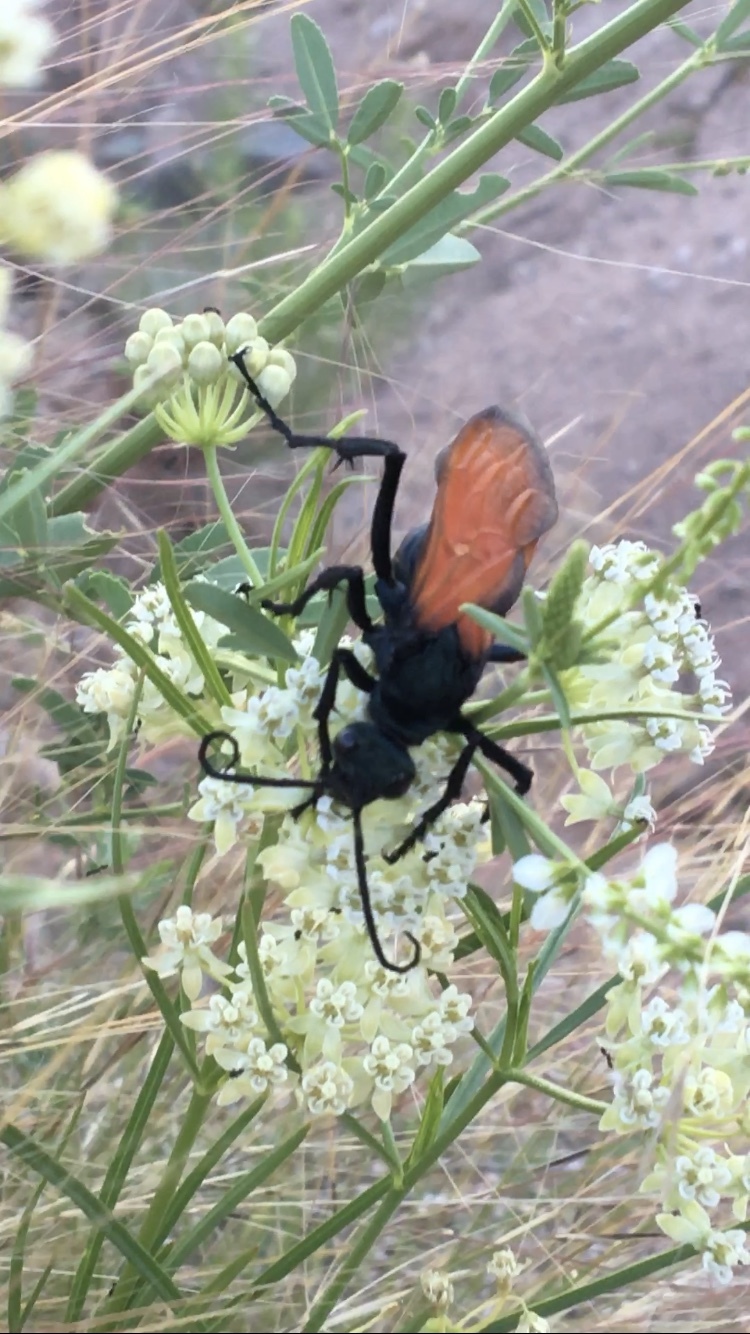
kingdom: Animalia
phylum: Arthropoda
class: Insecta
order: Hymenoptera
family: Pompilidae
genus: Pepsis
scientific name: Pepsis thisbe
